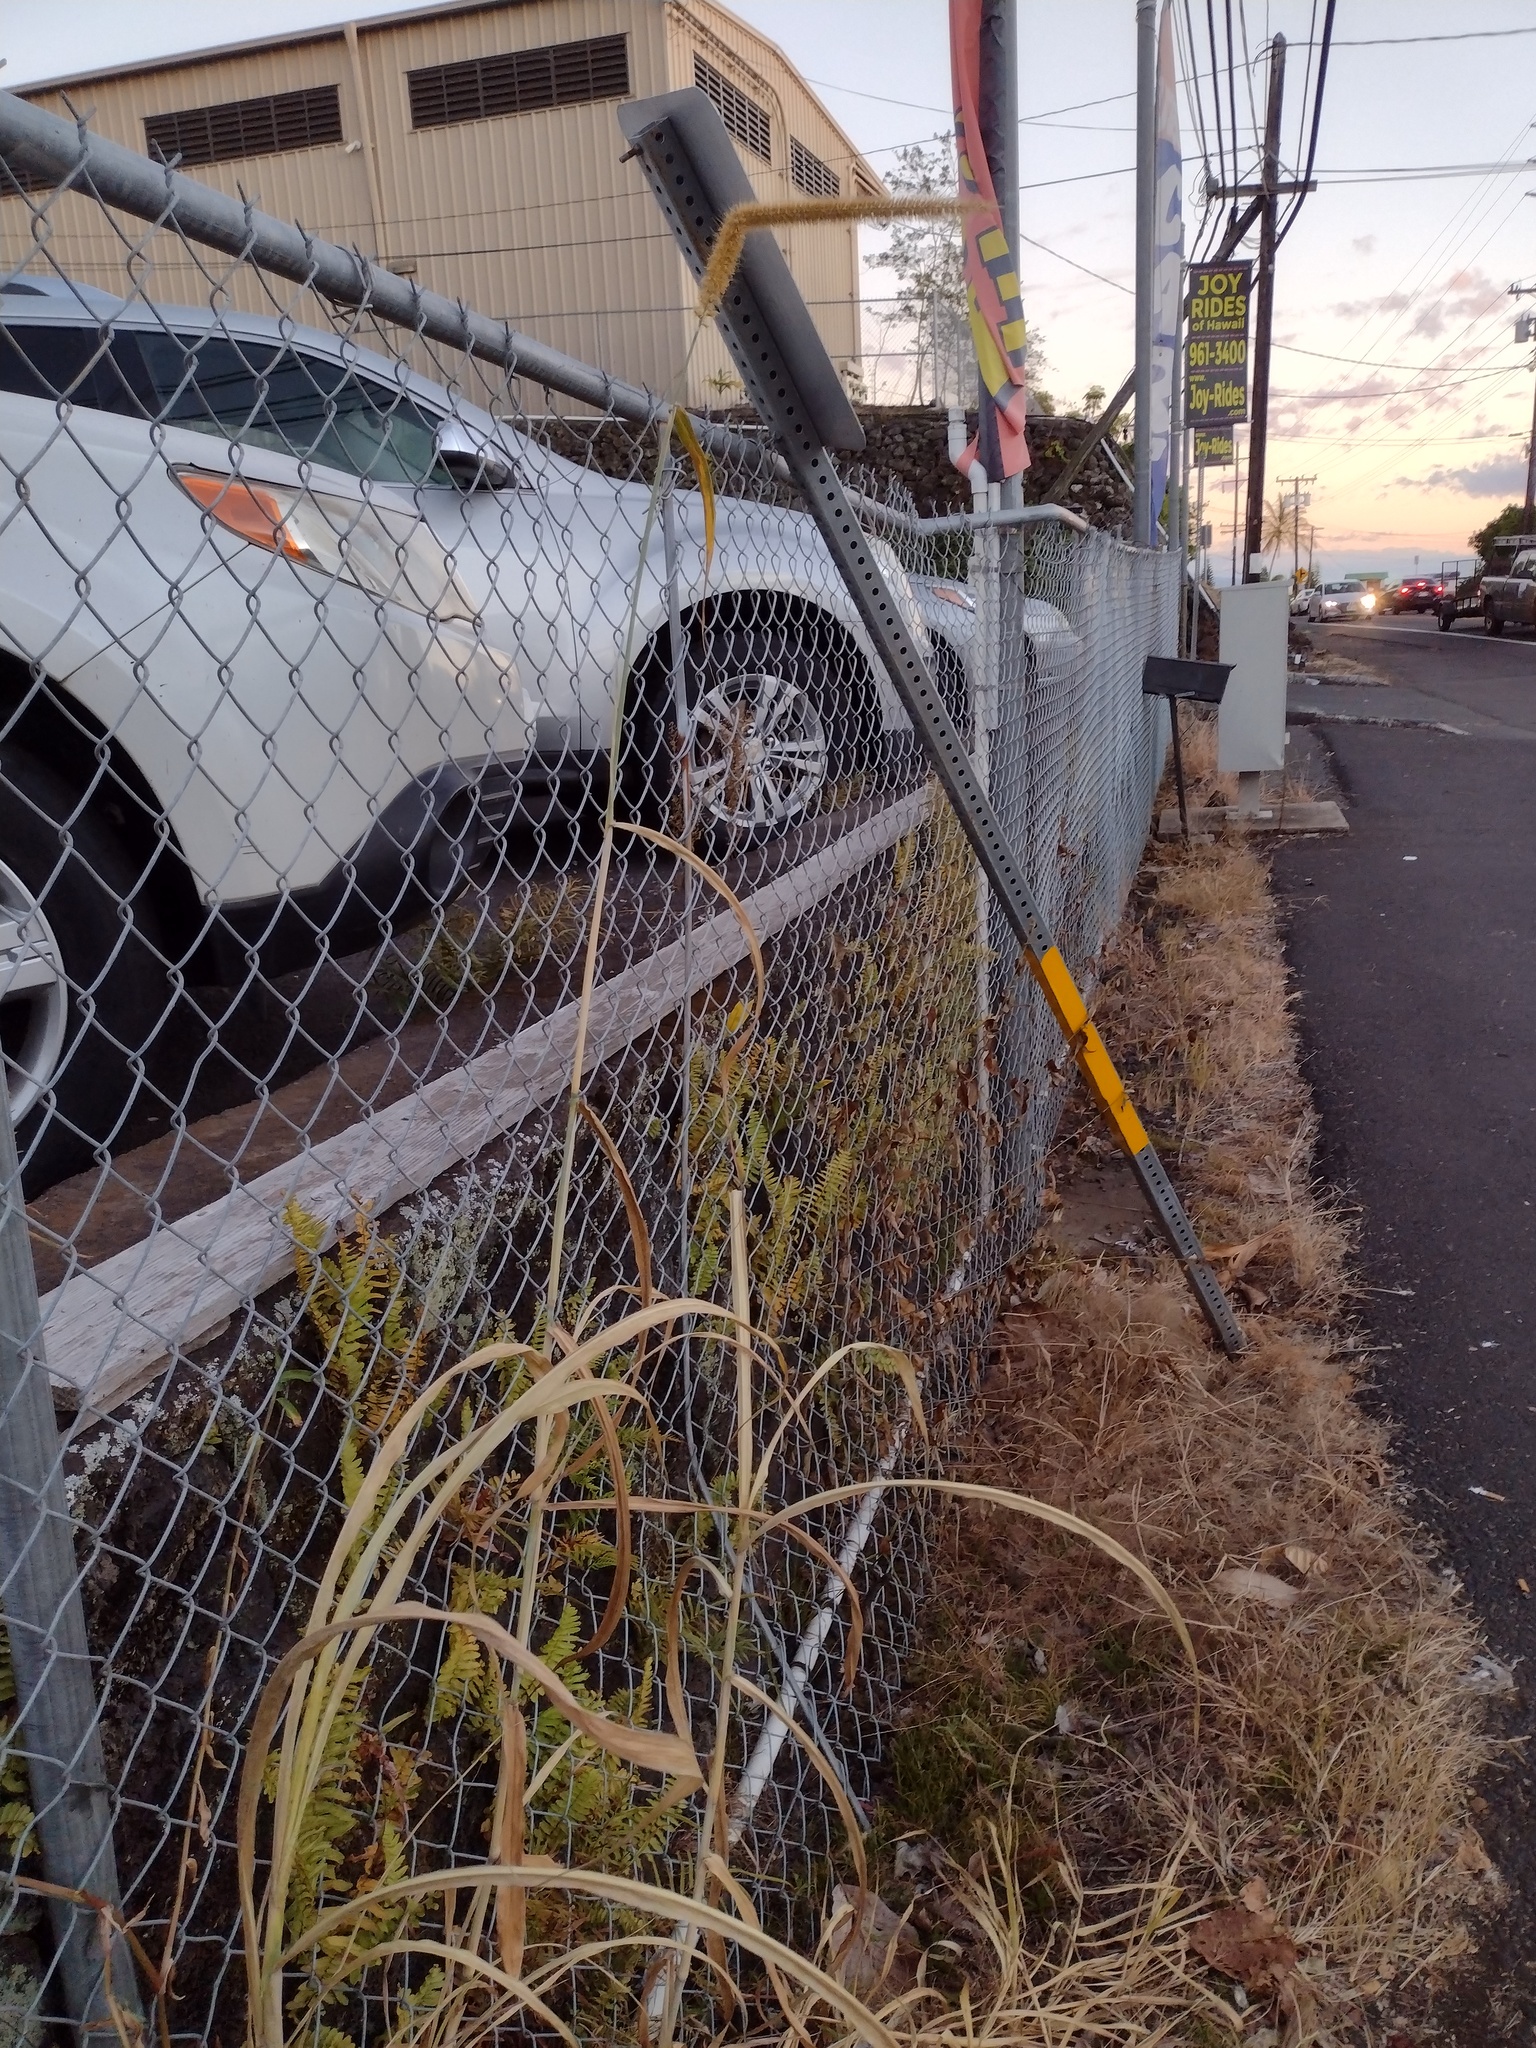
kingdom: Plantae
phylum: Tracheophyta
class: Liliopsida
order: Poales
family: Poaceae
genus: Cenchrus
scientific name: Cenchrus purpureus
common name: Elephant grass
